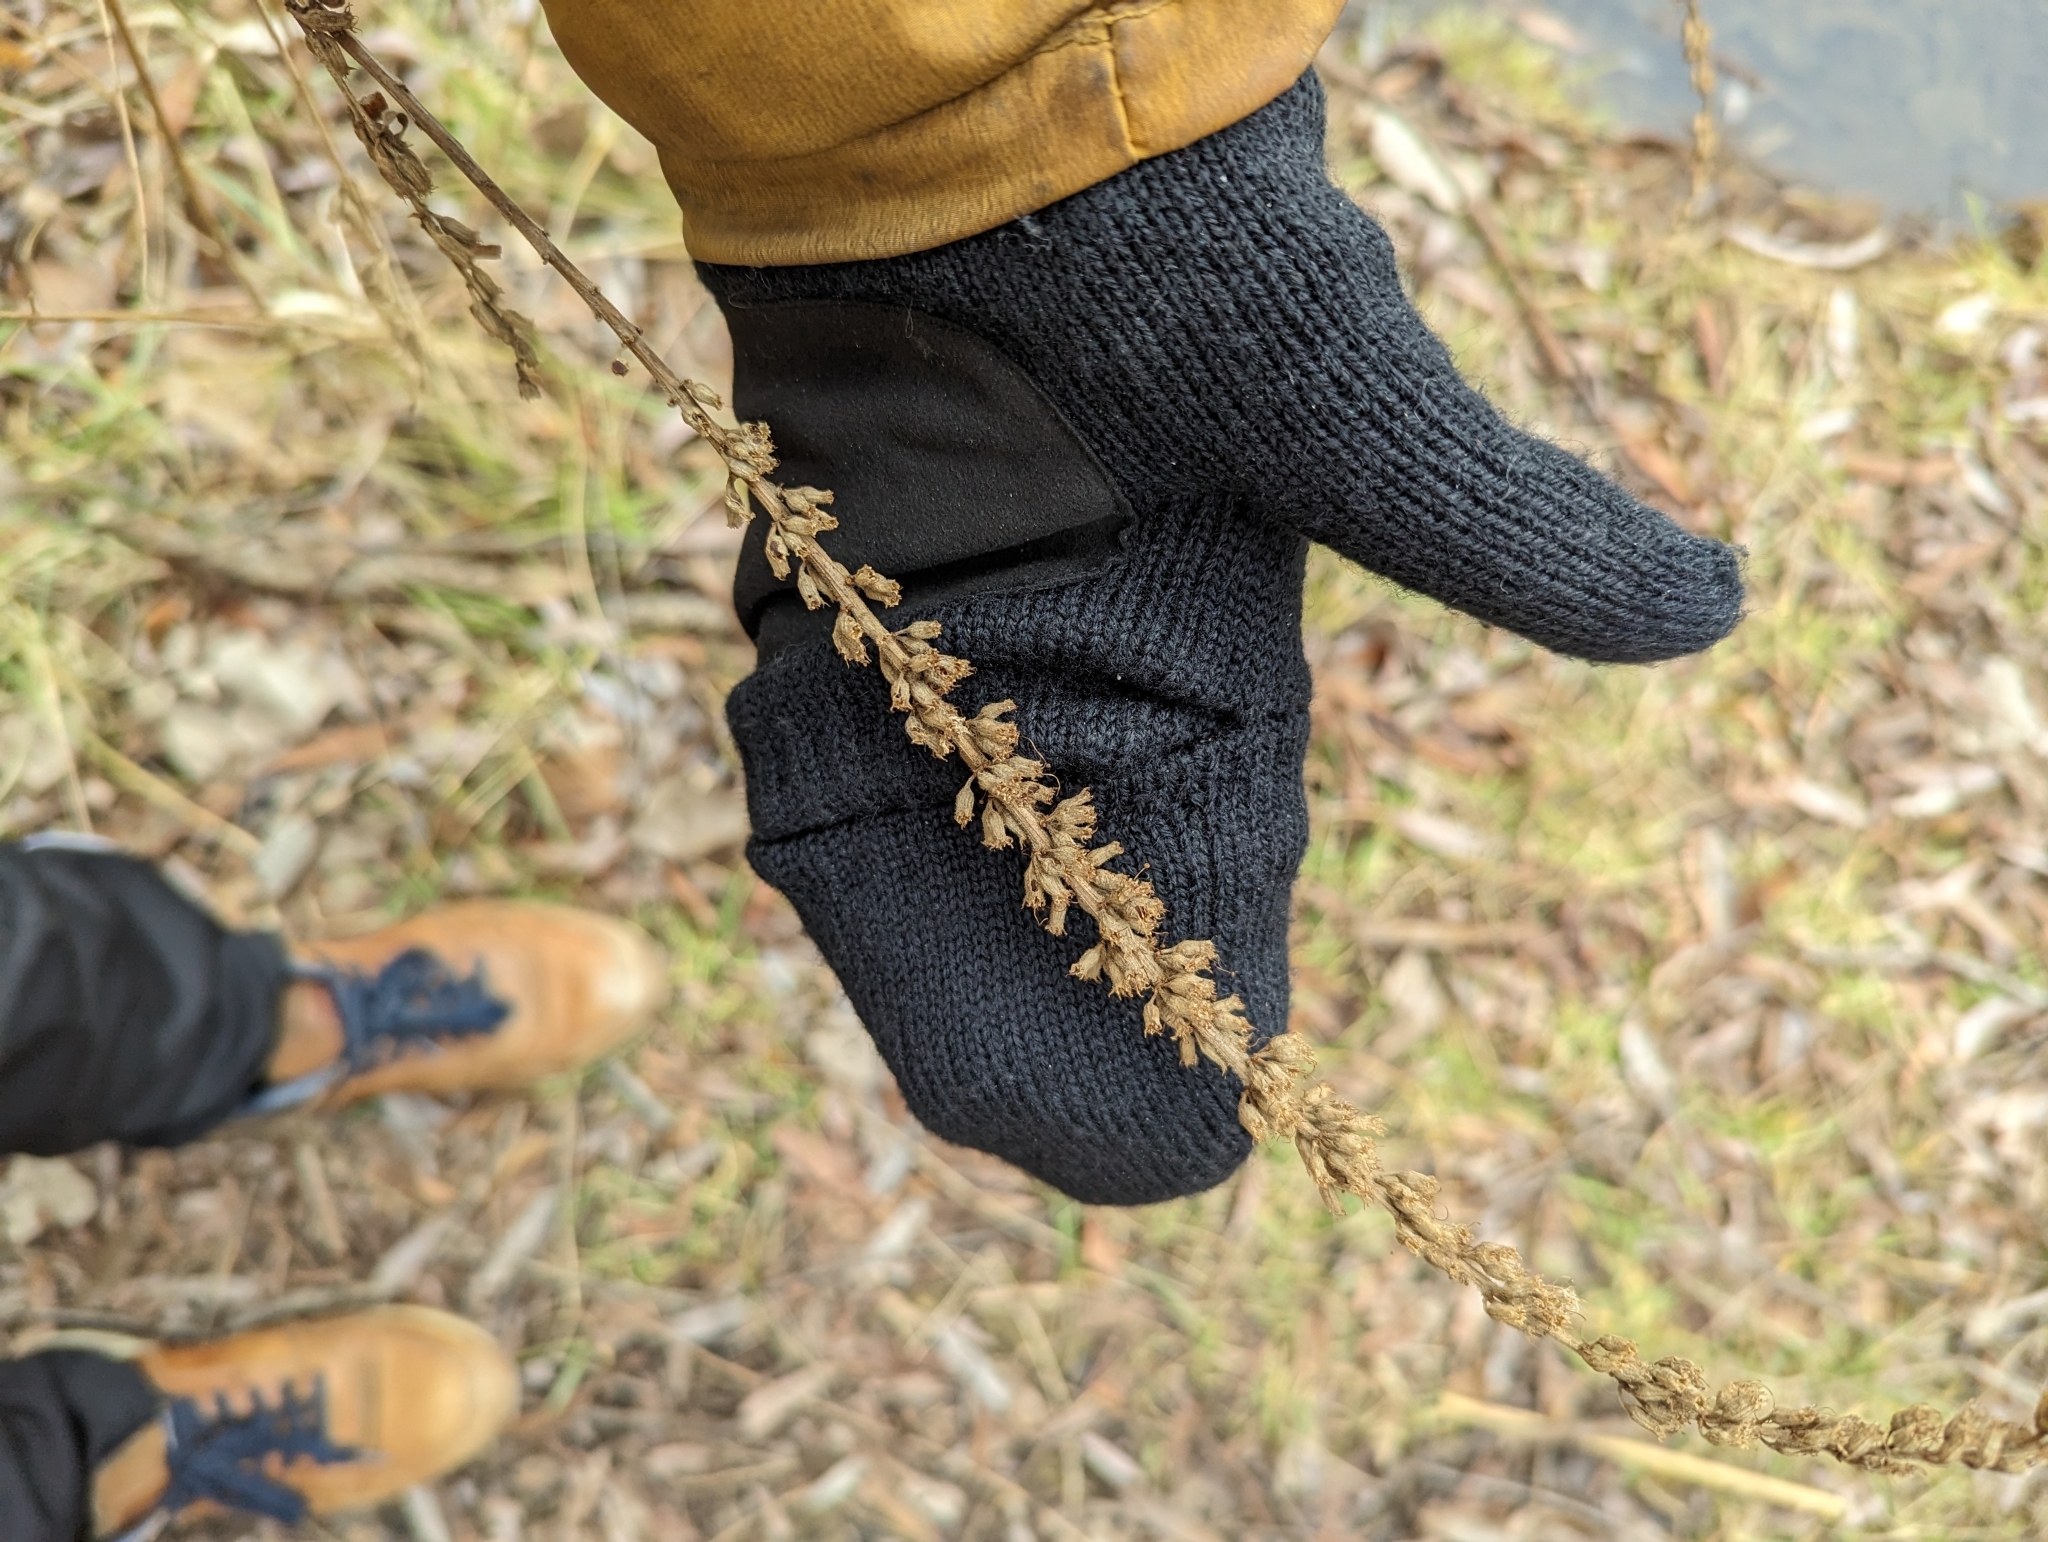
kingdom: Plantae
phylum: Tracheophyta
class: Magnoliopsida
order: Myrtales
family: Lythraceae
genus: Lythrum
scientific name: Lythrum salicaria
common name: Purple loosestrife
